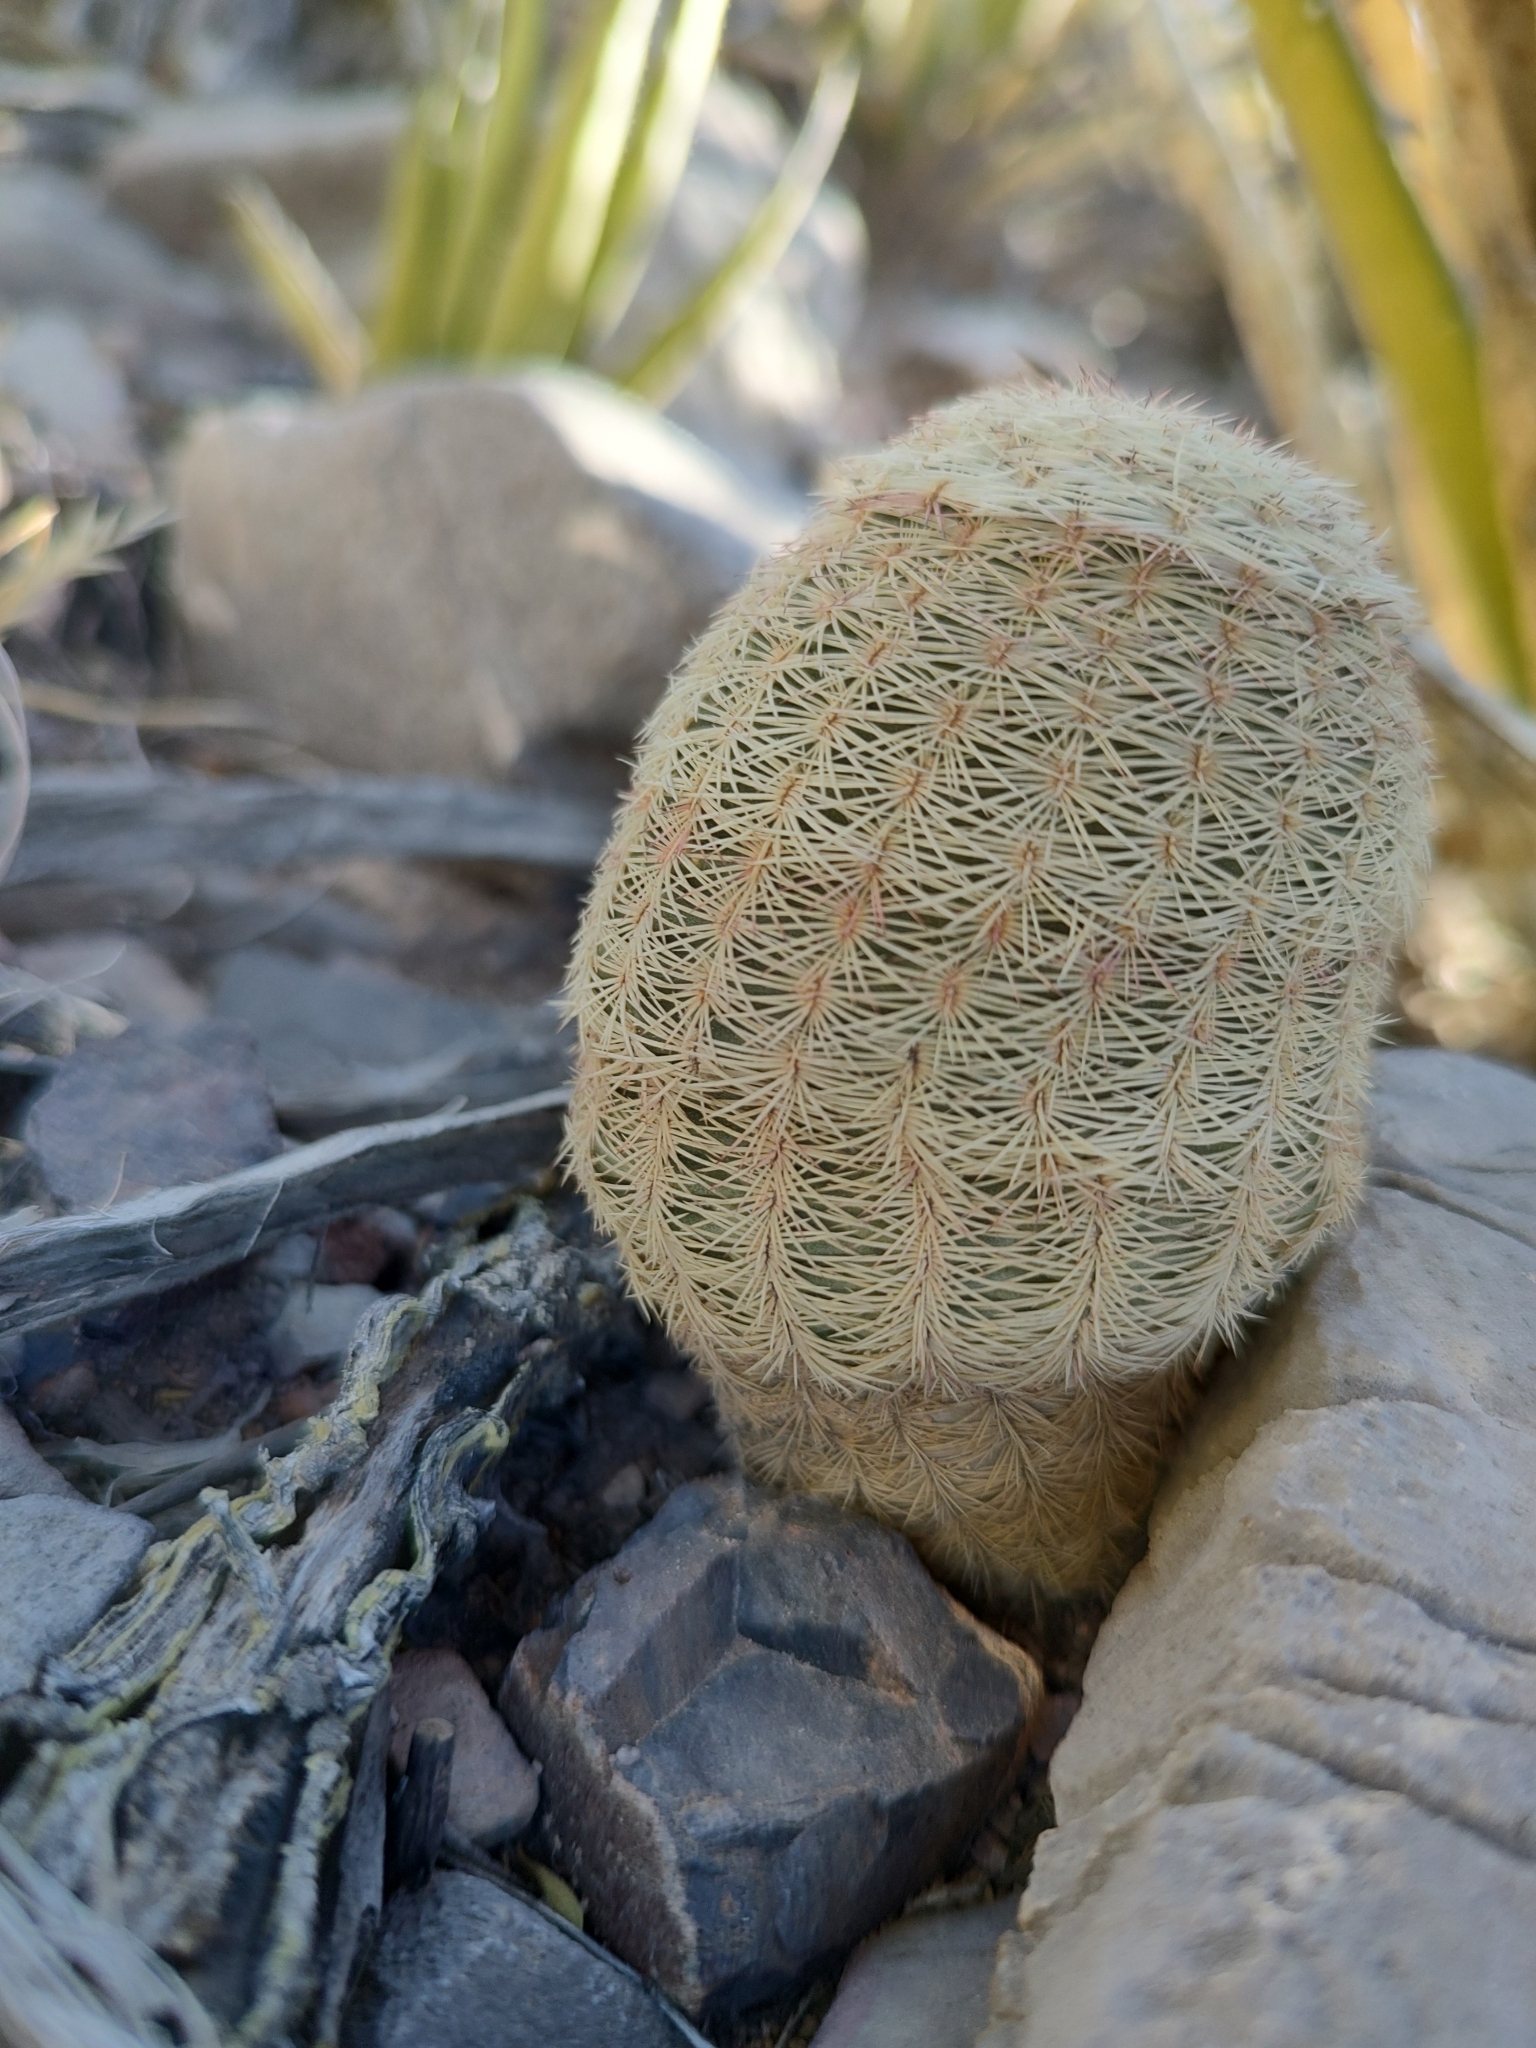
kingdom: Plantae
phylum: Tracheophyta
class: Magnoliopsida
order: Caryophyllales
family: Cactaceae
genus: Echinocereus
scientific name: Echinocereus pectinatus
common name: Rainbow cactus
